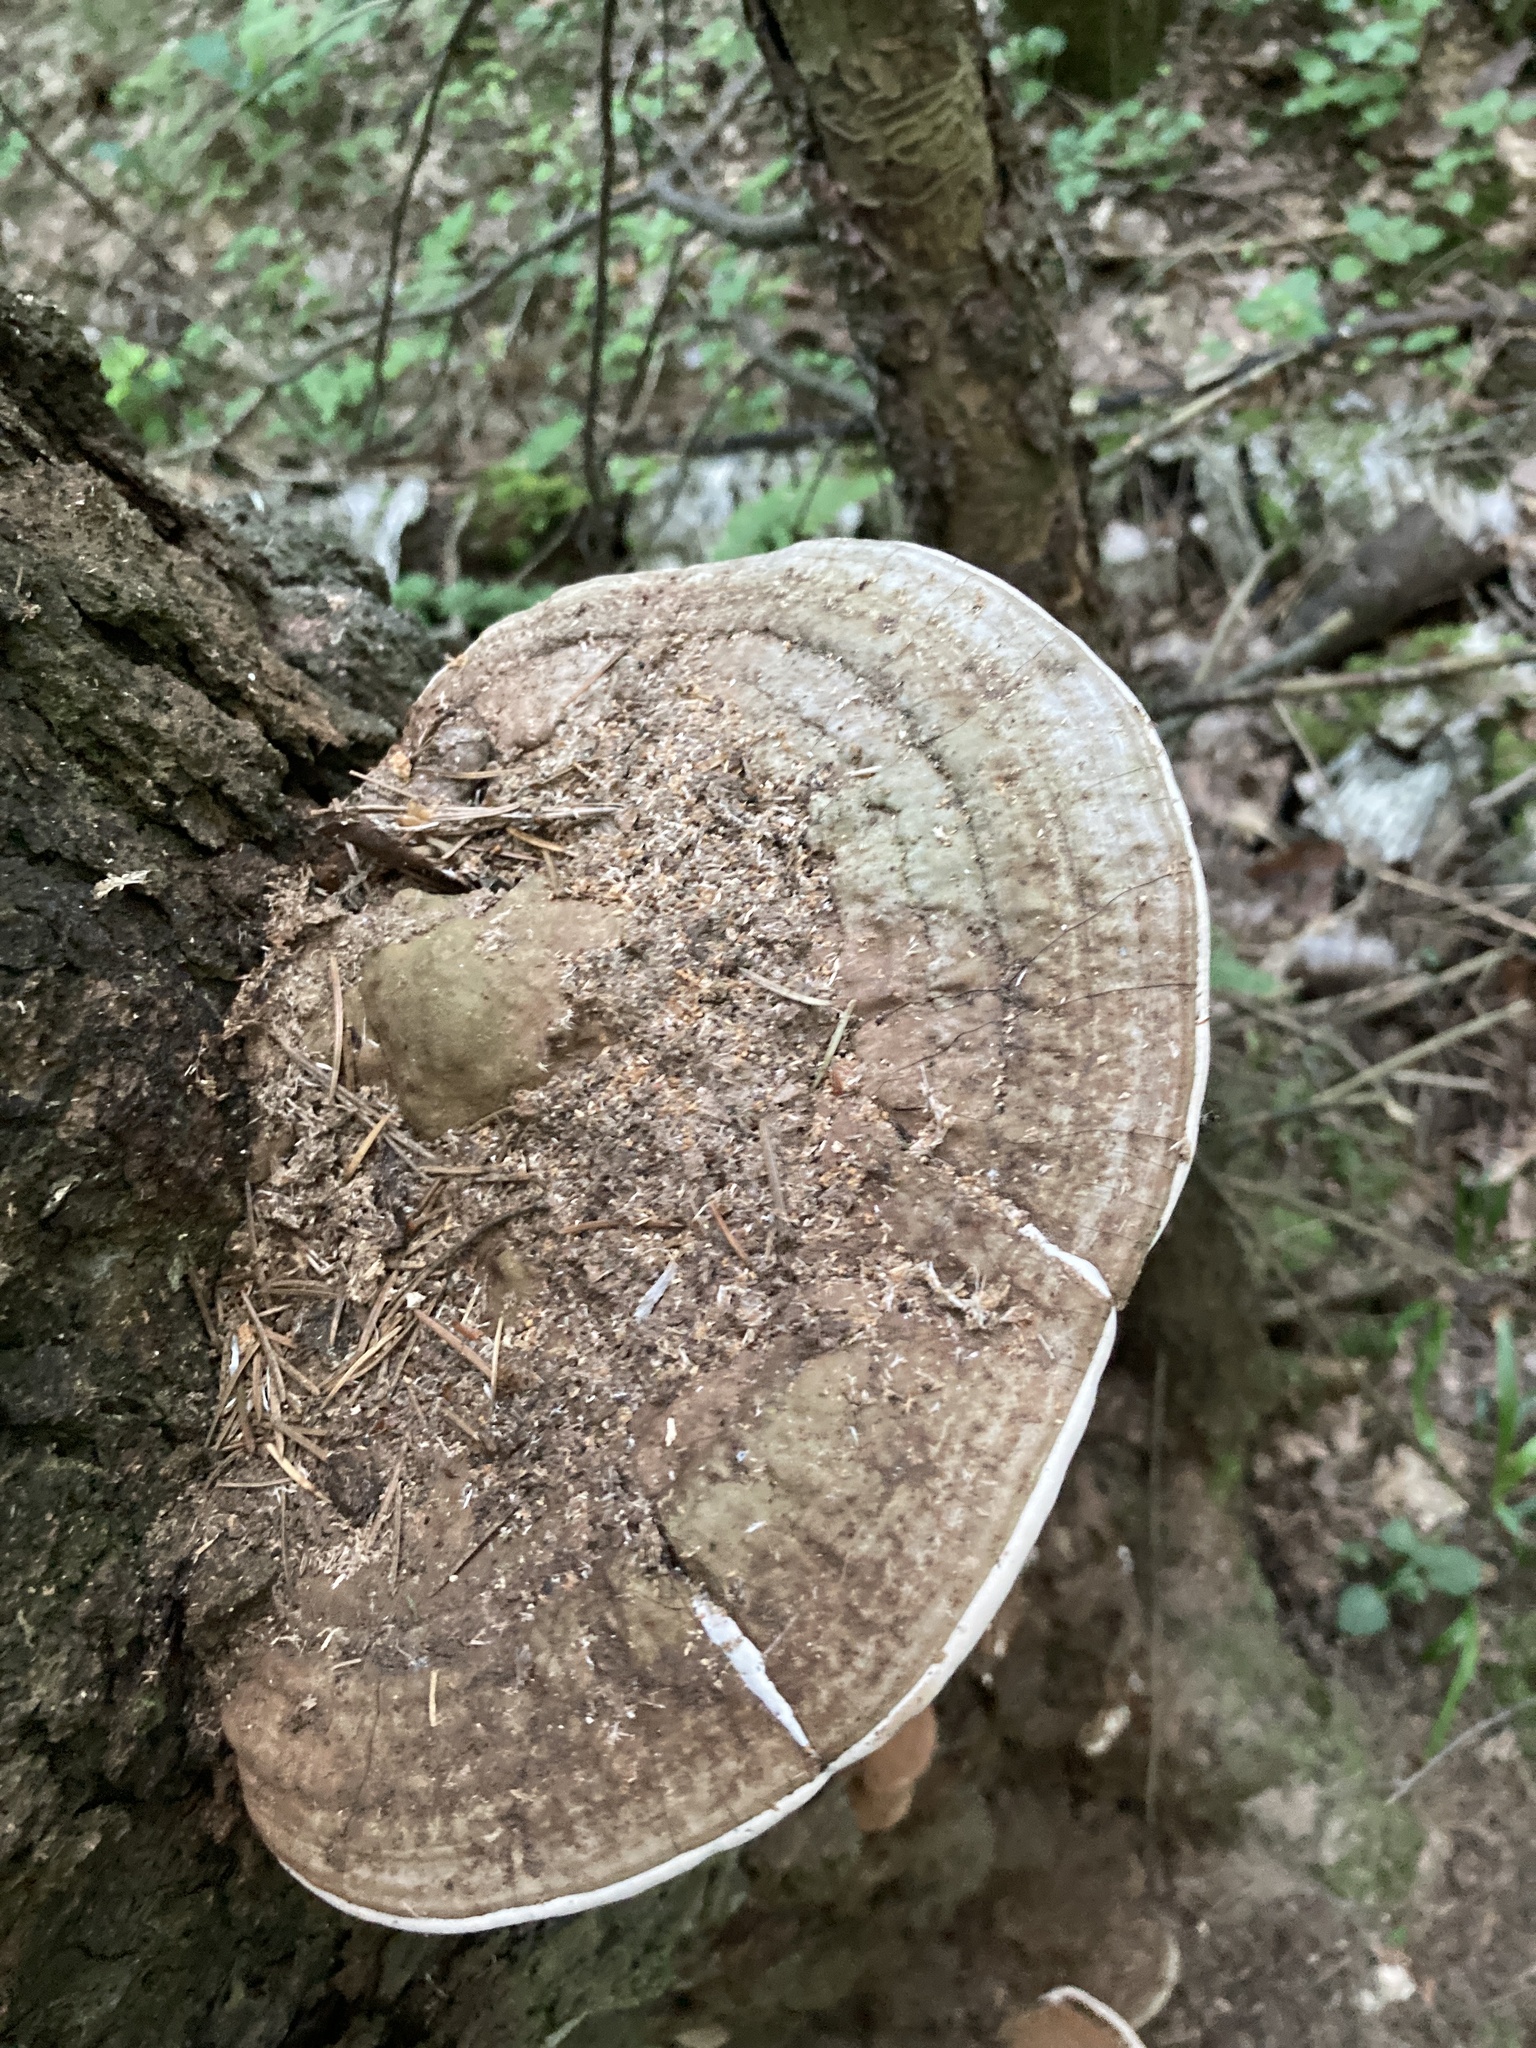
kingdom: Fungi
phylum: Basidiomycota
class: Agaricomycetes
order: Polyporales
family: Polyporaceae
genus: Ganoderma
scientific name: Ganoderma applanatum
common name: Artist's bracket
